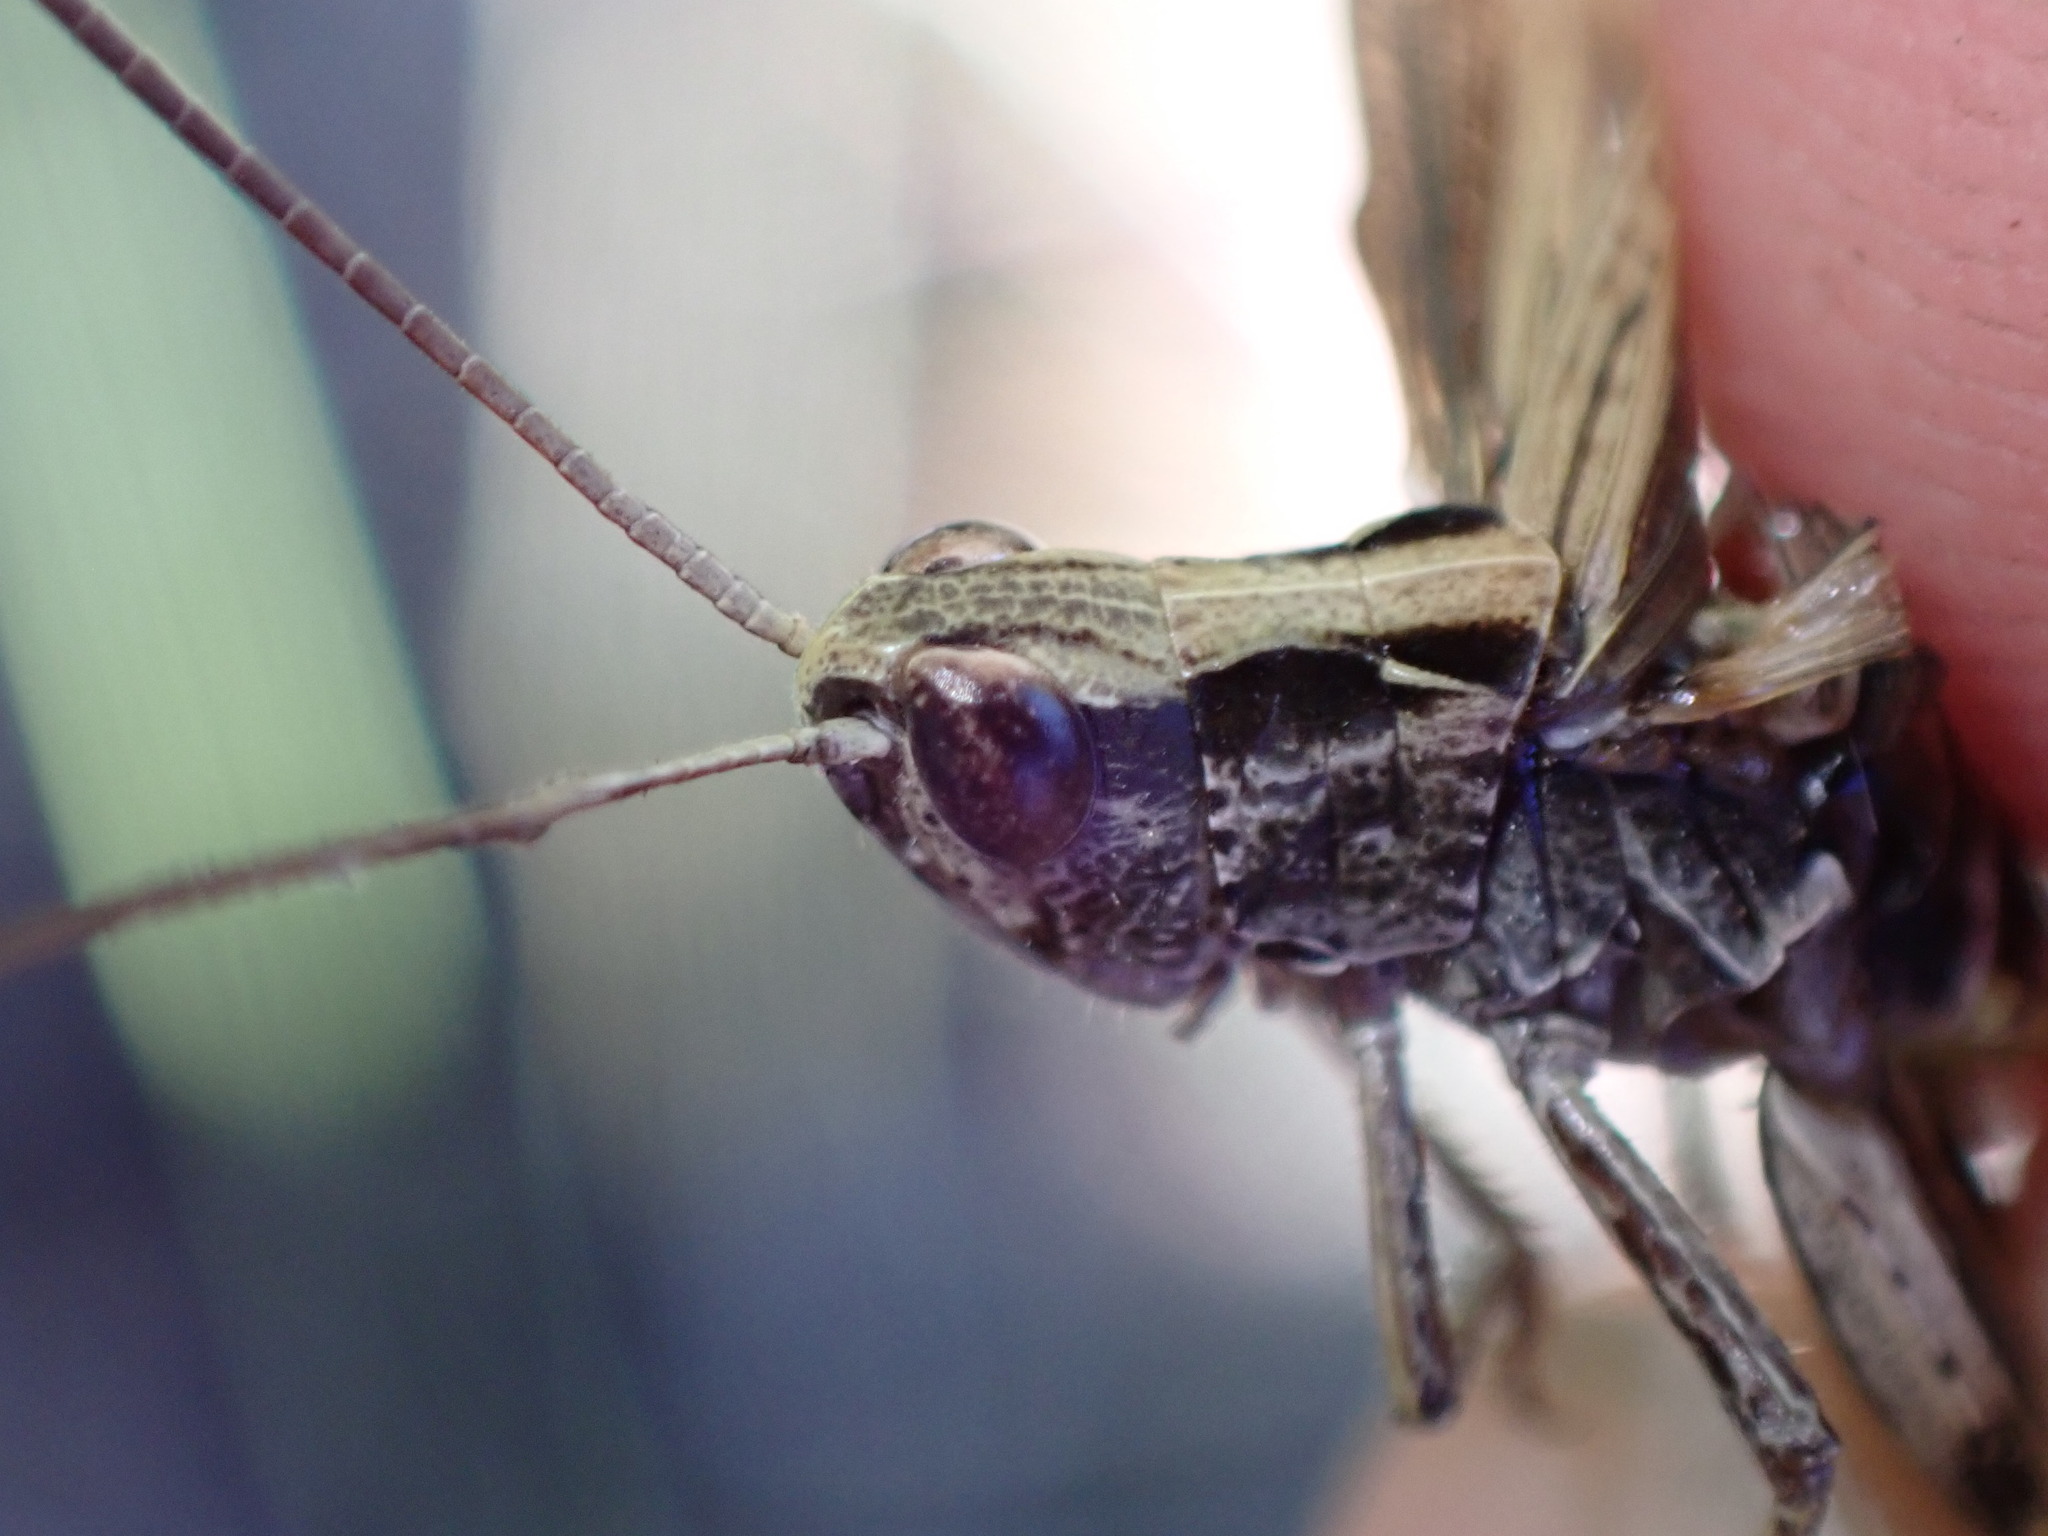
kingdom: Animalia
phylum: Arthropoda
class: Insecta
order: Orthoptera
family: Acrididae
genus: Chorthippus
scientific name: Chorthippus vagans
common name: Heath grasshopper
